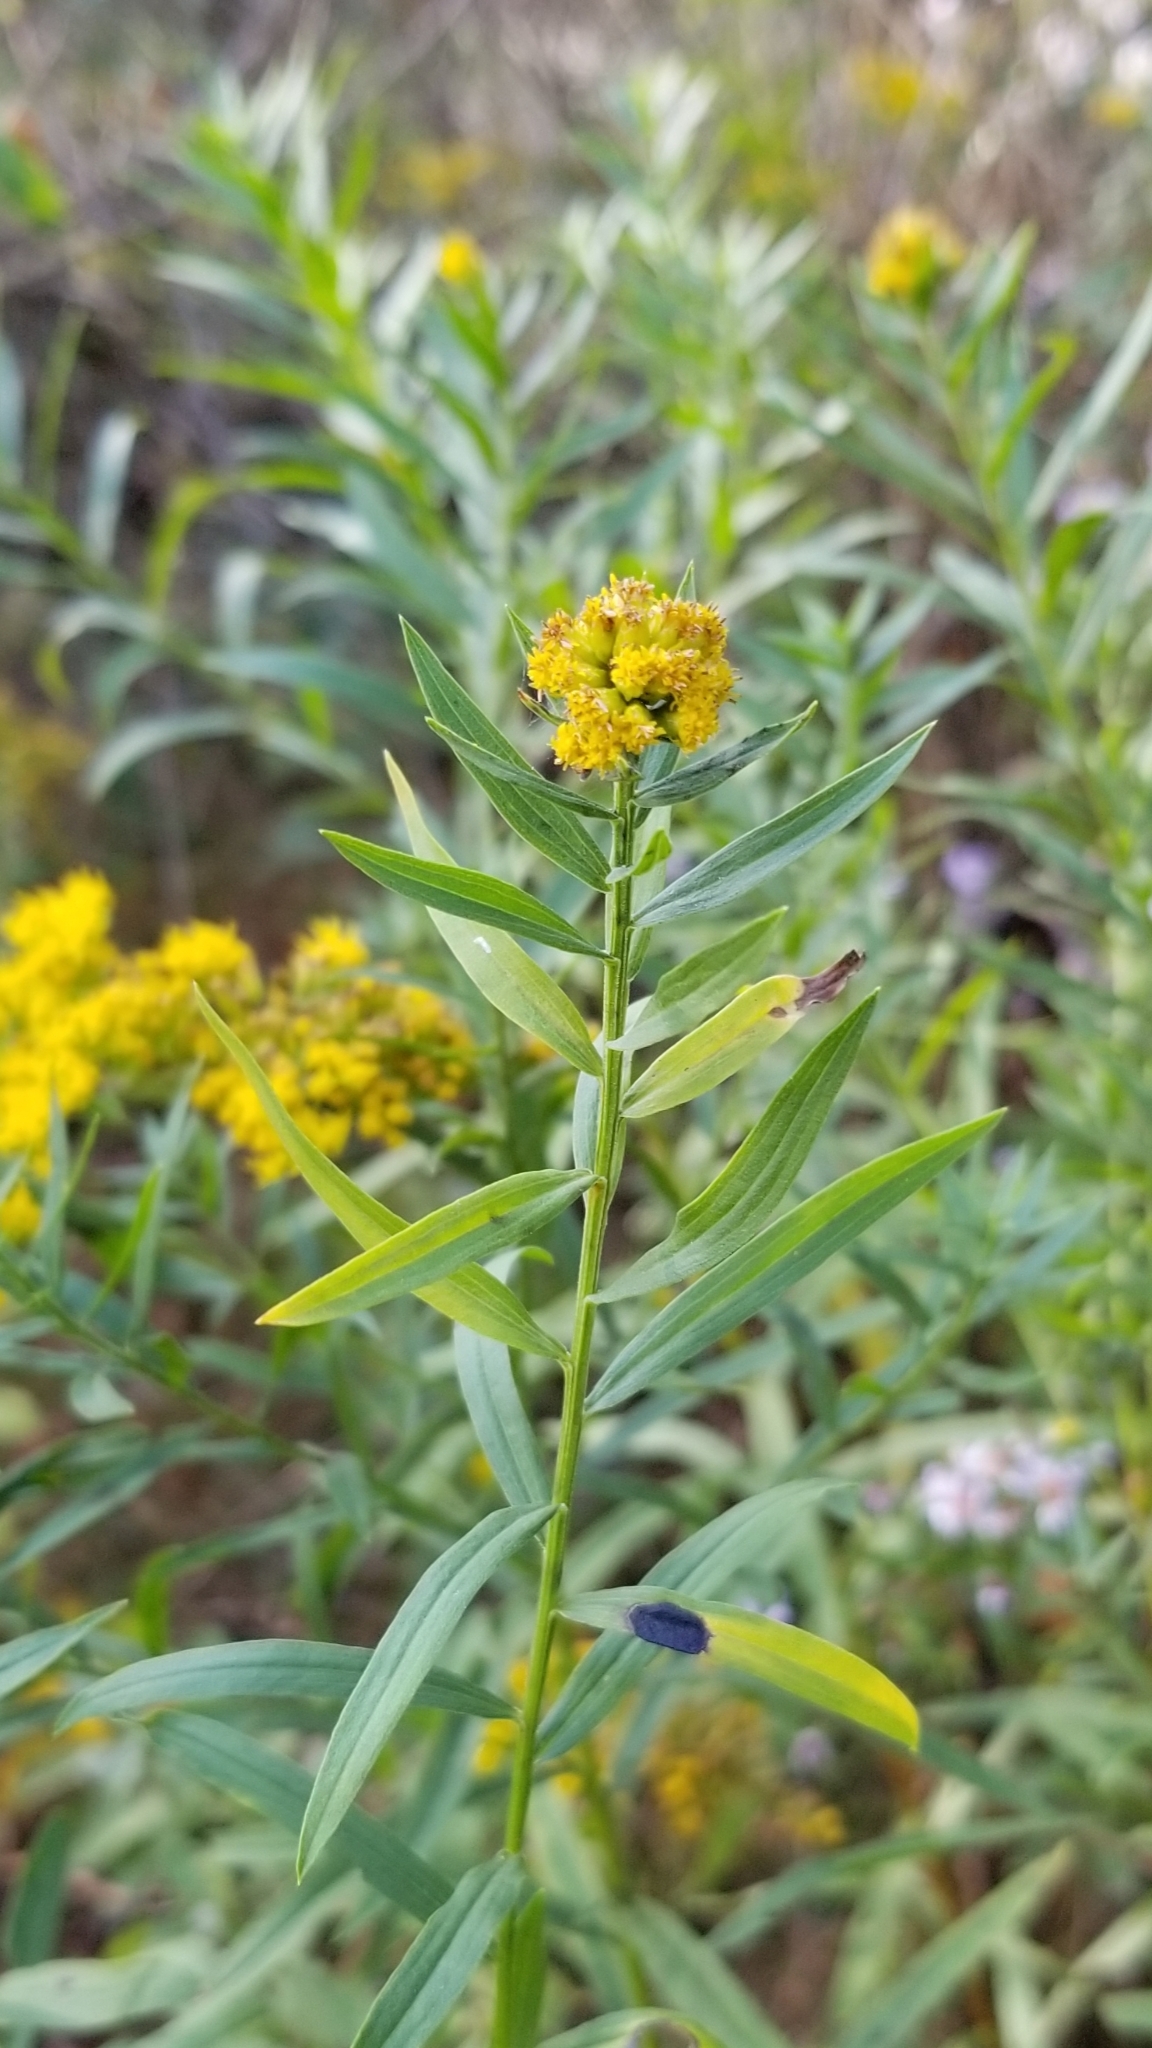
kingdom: Animalia
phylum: Arthropoda
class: Insecta
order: Diptera
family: Cecidomyiidae
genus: Asteromyia
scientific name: Asteromyia euthamiae
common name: Euthamia leaf gall midge
